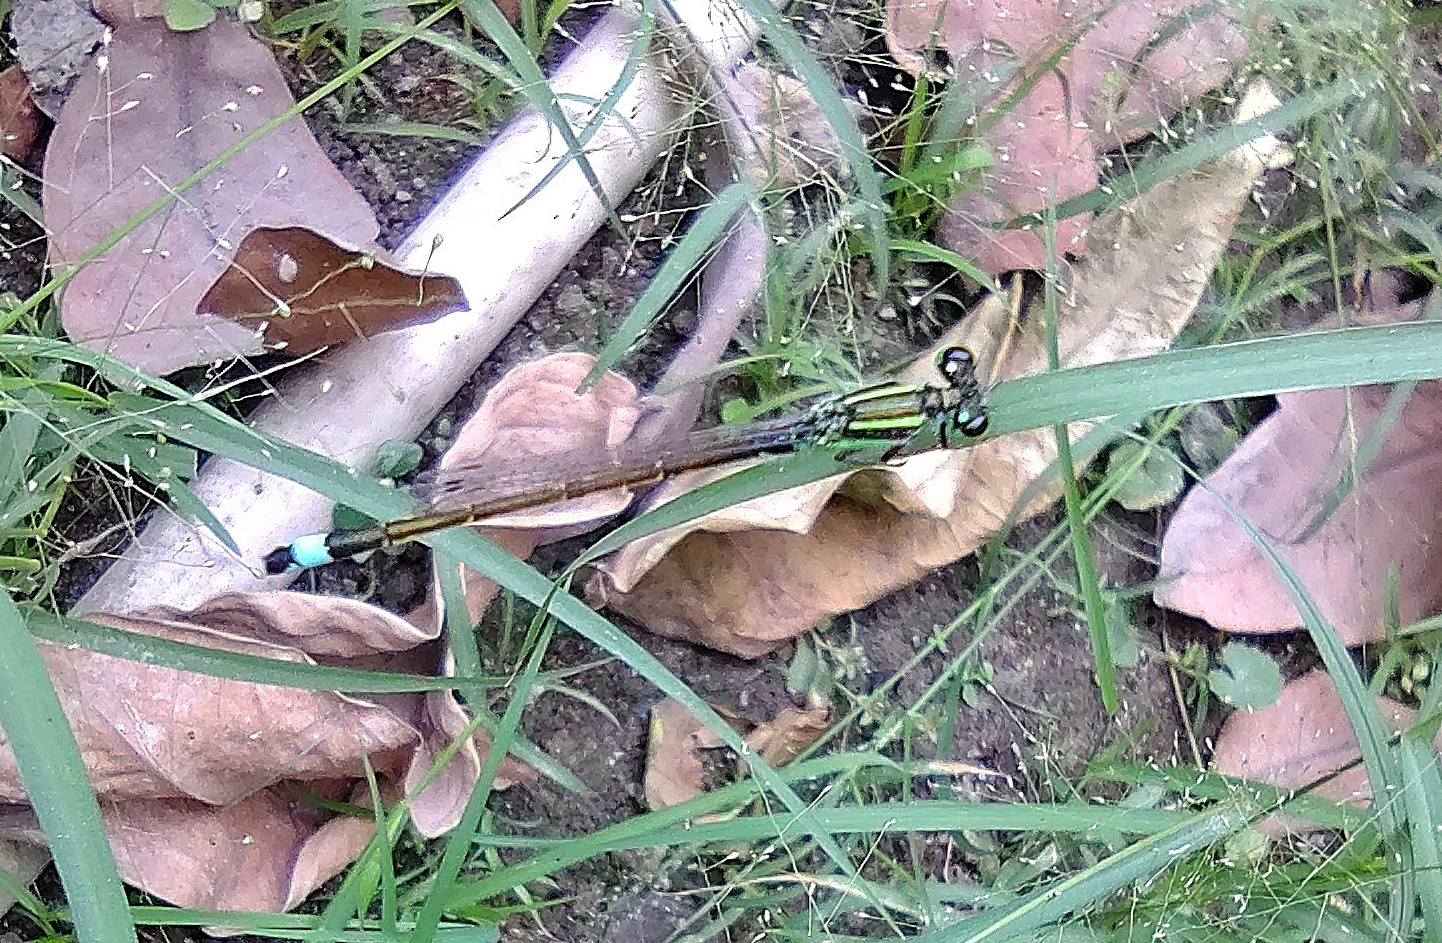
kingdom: Animalia
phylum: Arthropoda
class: Insecta
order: Odonata
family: Coenagrionidae
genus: Ischnura
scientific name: Ischnura senegalensis
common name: Tropical bluetail
